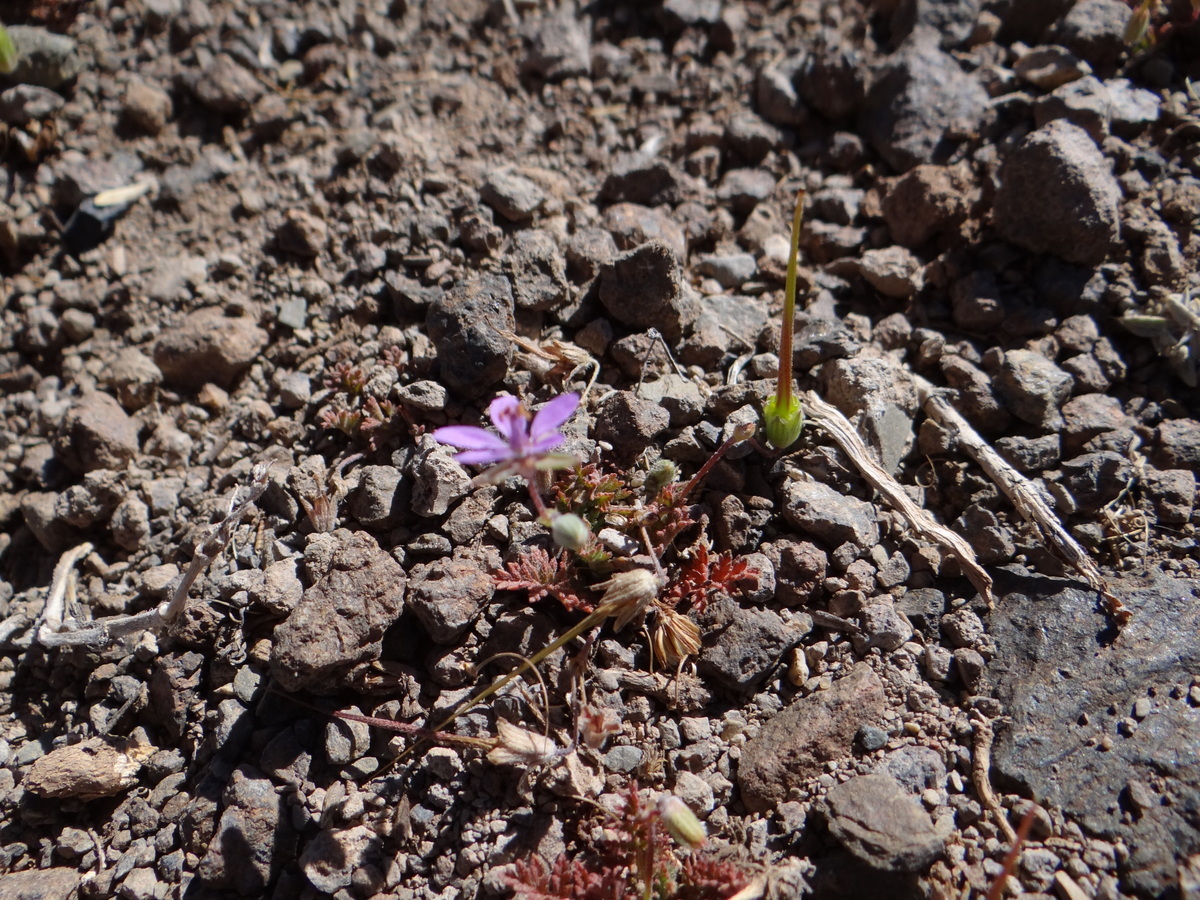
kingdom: Plantae
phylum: Tracheophyta
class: Magnoliopsida
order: Geraniales
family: Geraniaceae
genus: Erodium
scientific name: Erodium cicutarium
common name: Common stork's-bill
